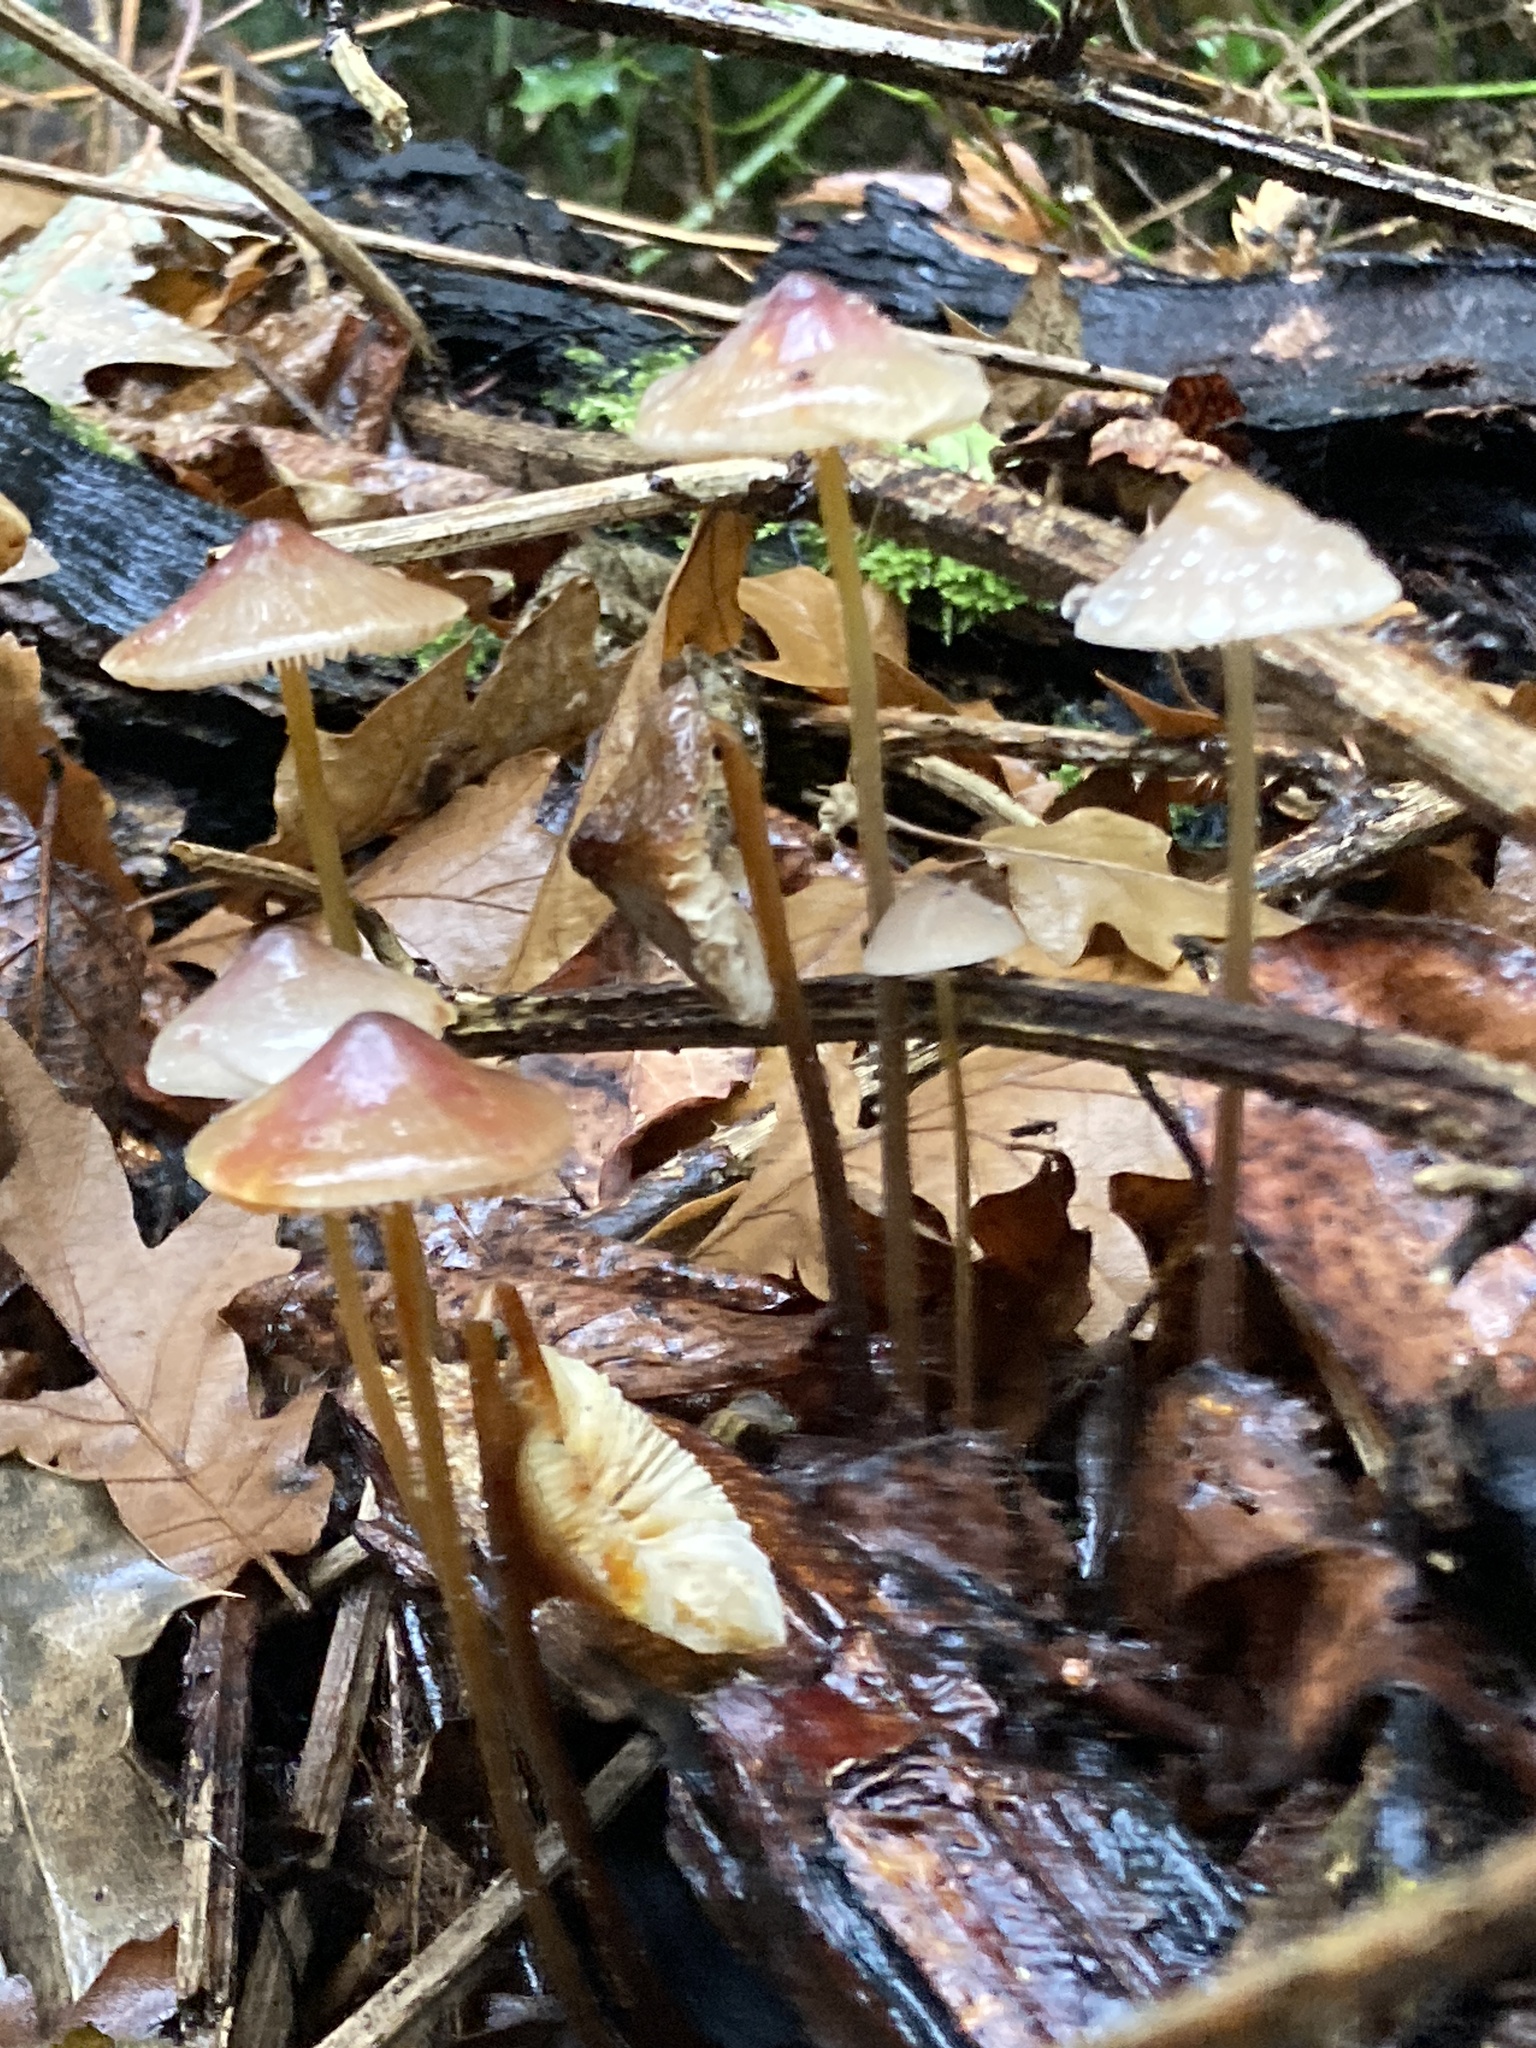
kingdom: Fungi
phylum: Basidiomycota
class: Agaricomycetes
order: Agaricales
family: Mycenaceae
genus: Mycena
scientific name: Mycena crocata
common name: Saffrondrop bonnet
